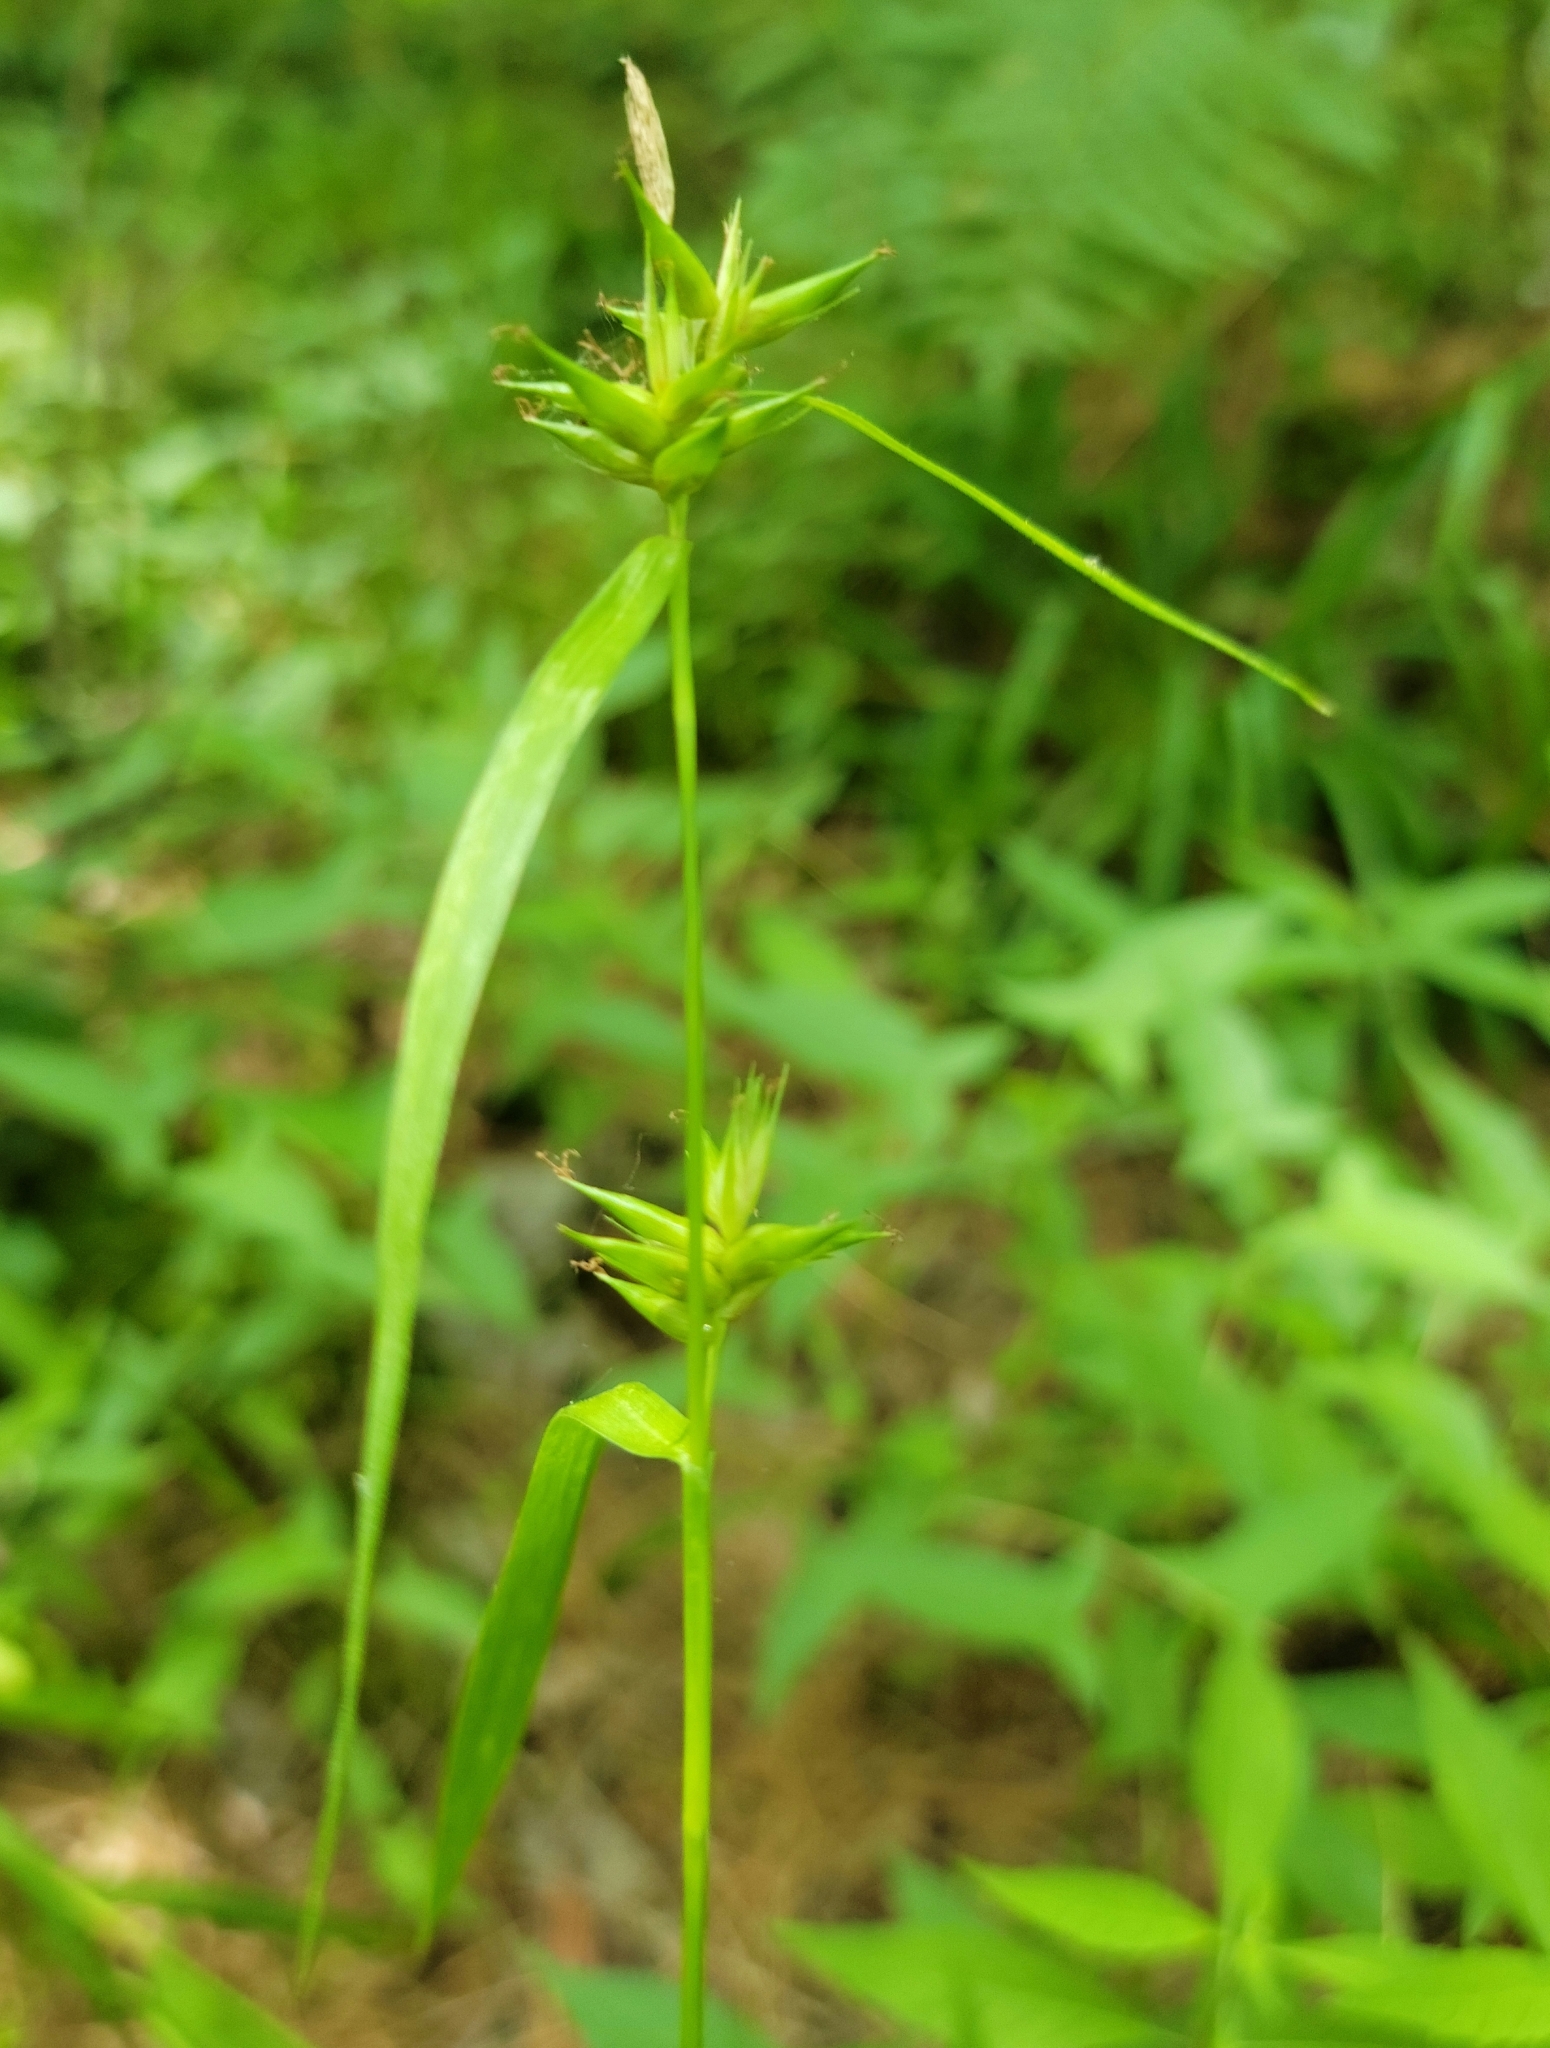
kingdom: Plantae
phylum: Tracheophyta
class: Liliopsida
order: Poales
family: Cyperaceae
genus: Carex
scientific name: Carex folliculata
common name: Northern long sedge
